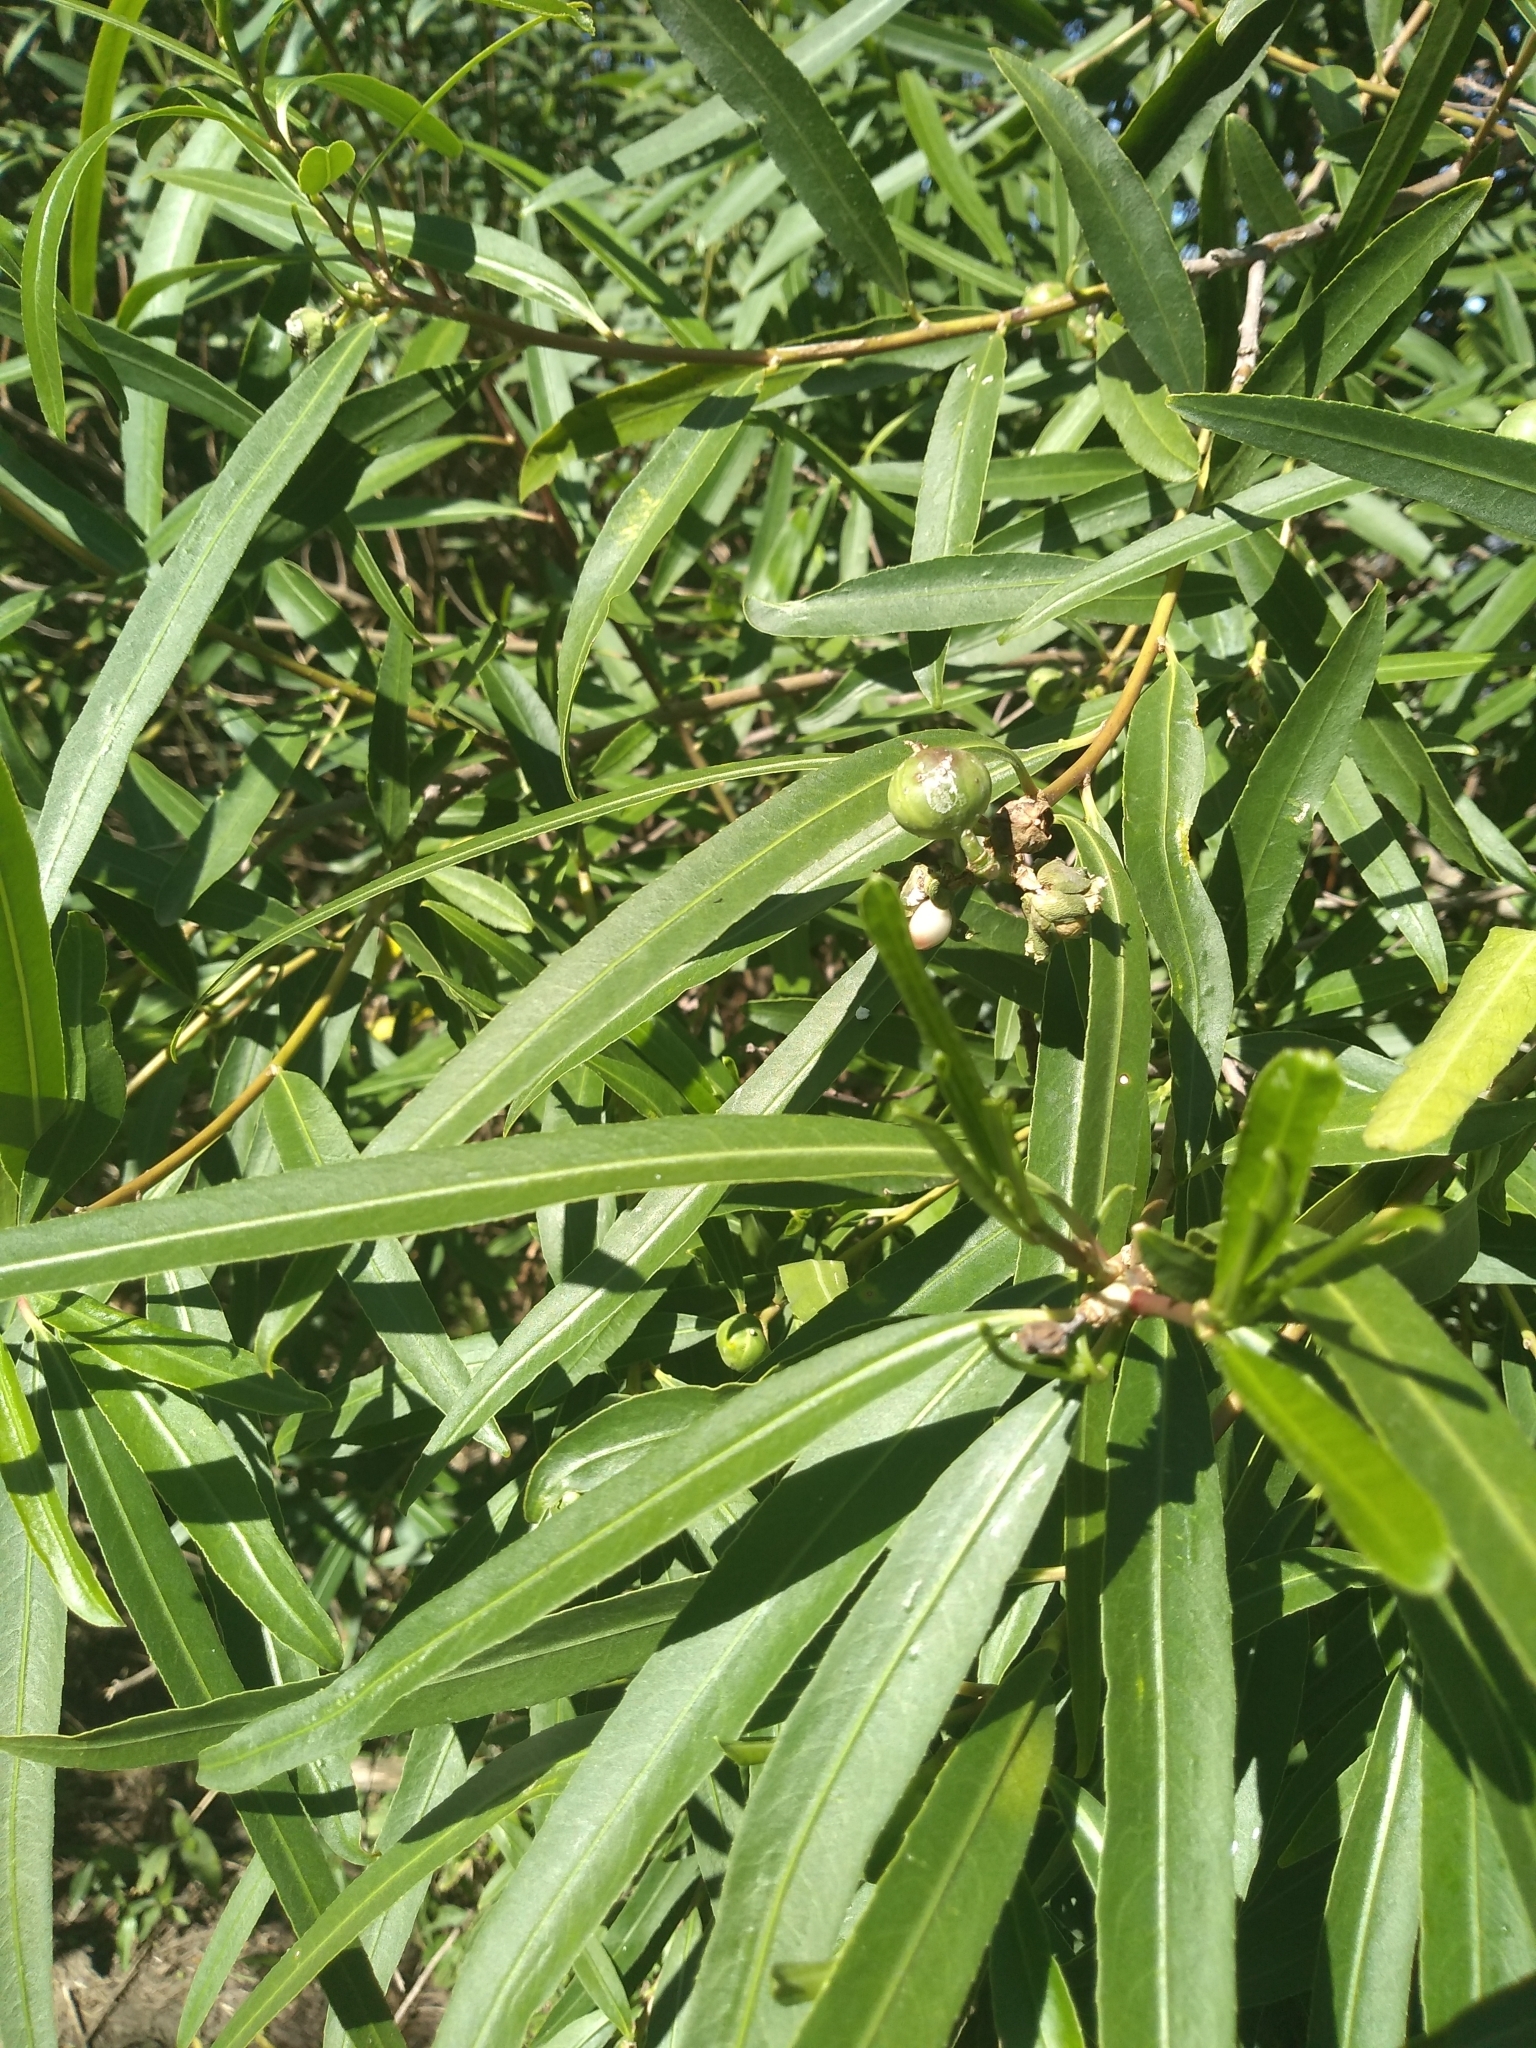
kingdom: Plantae
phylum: Tracheophyta
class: Magnoliopsida
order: Malpighiales
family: Euphorbiaceae
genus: Sapium
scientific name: Sapium haematospermum
